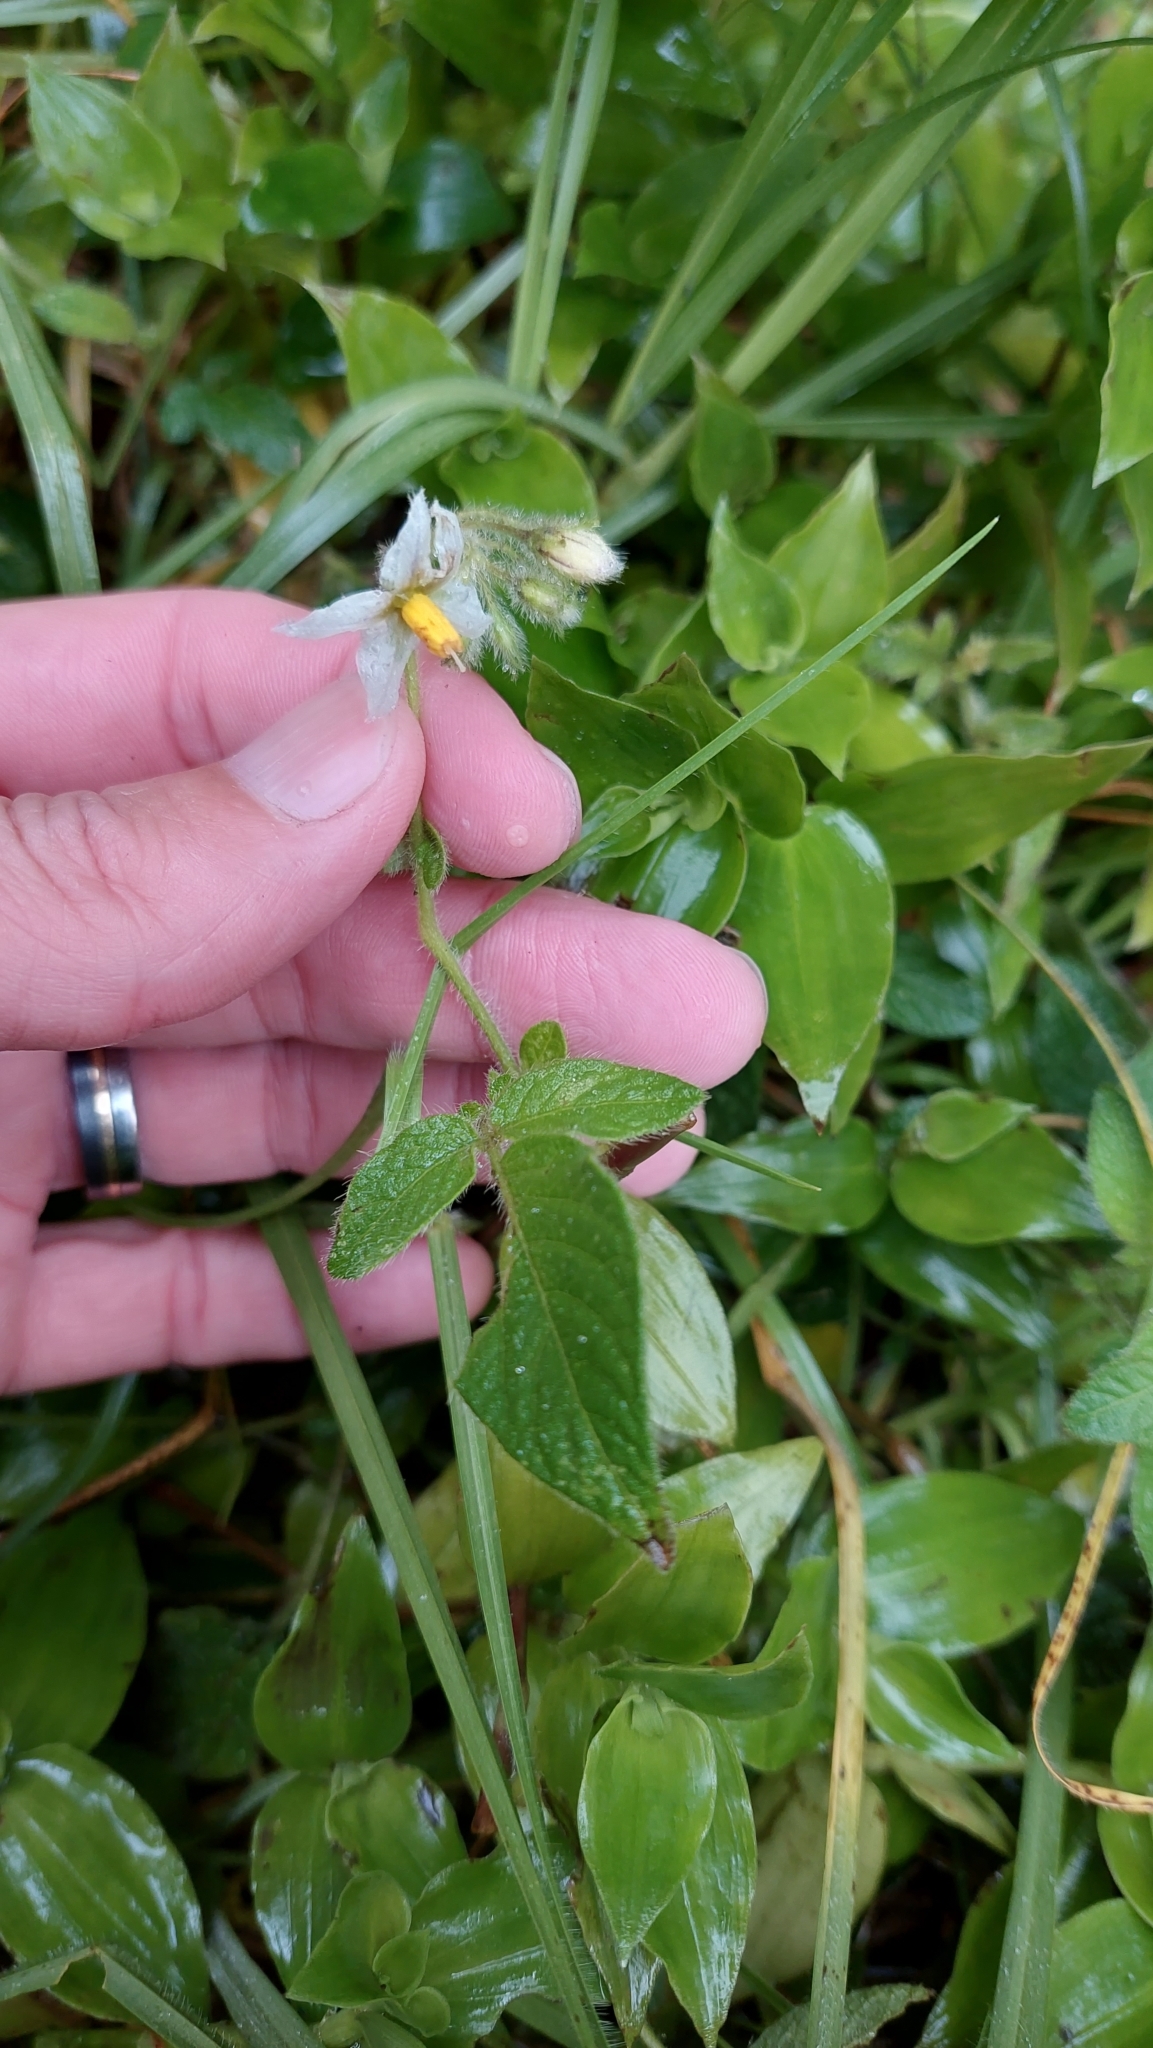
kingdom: Plantae
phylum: Tracheophyta
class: Magnoliopsida
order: Solanales
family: Solanaceae
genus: Solanum
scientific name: Solanum caripense
